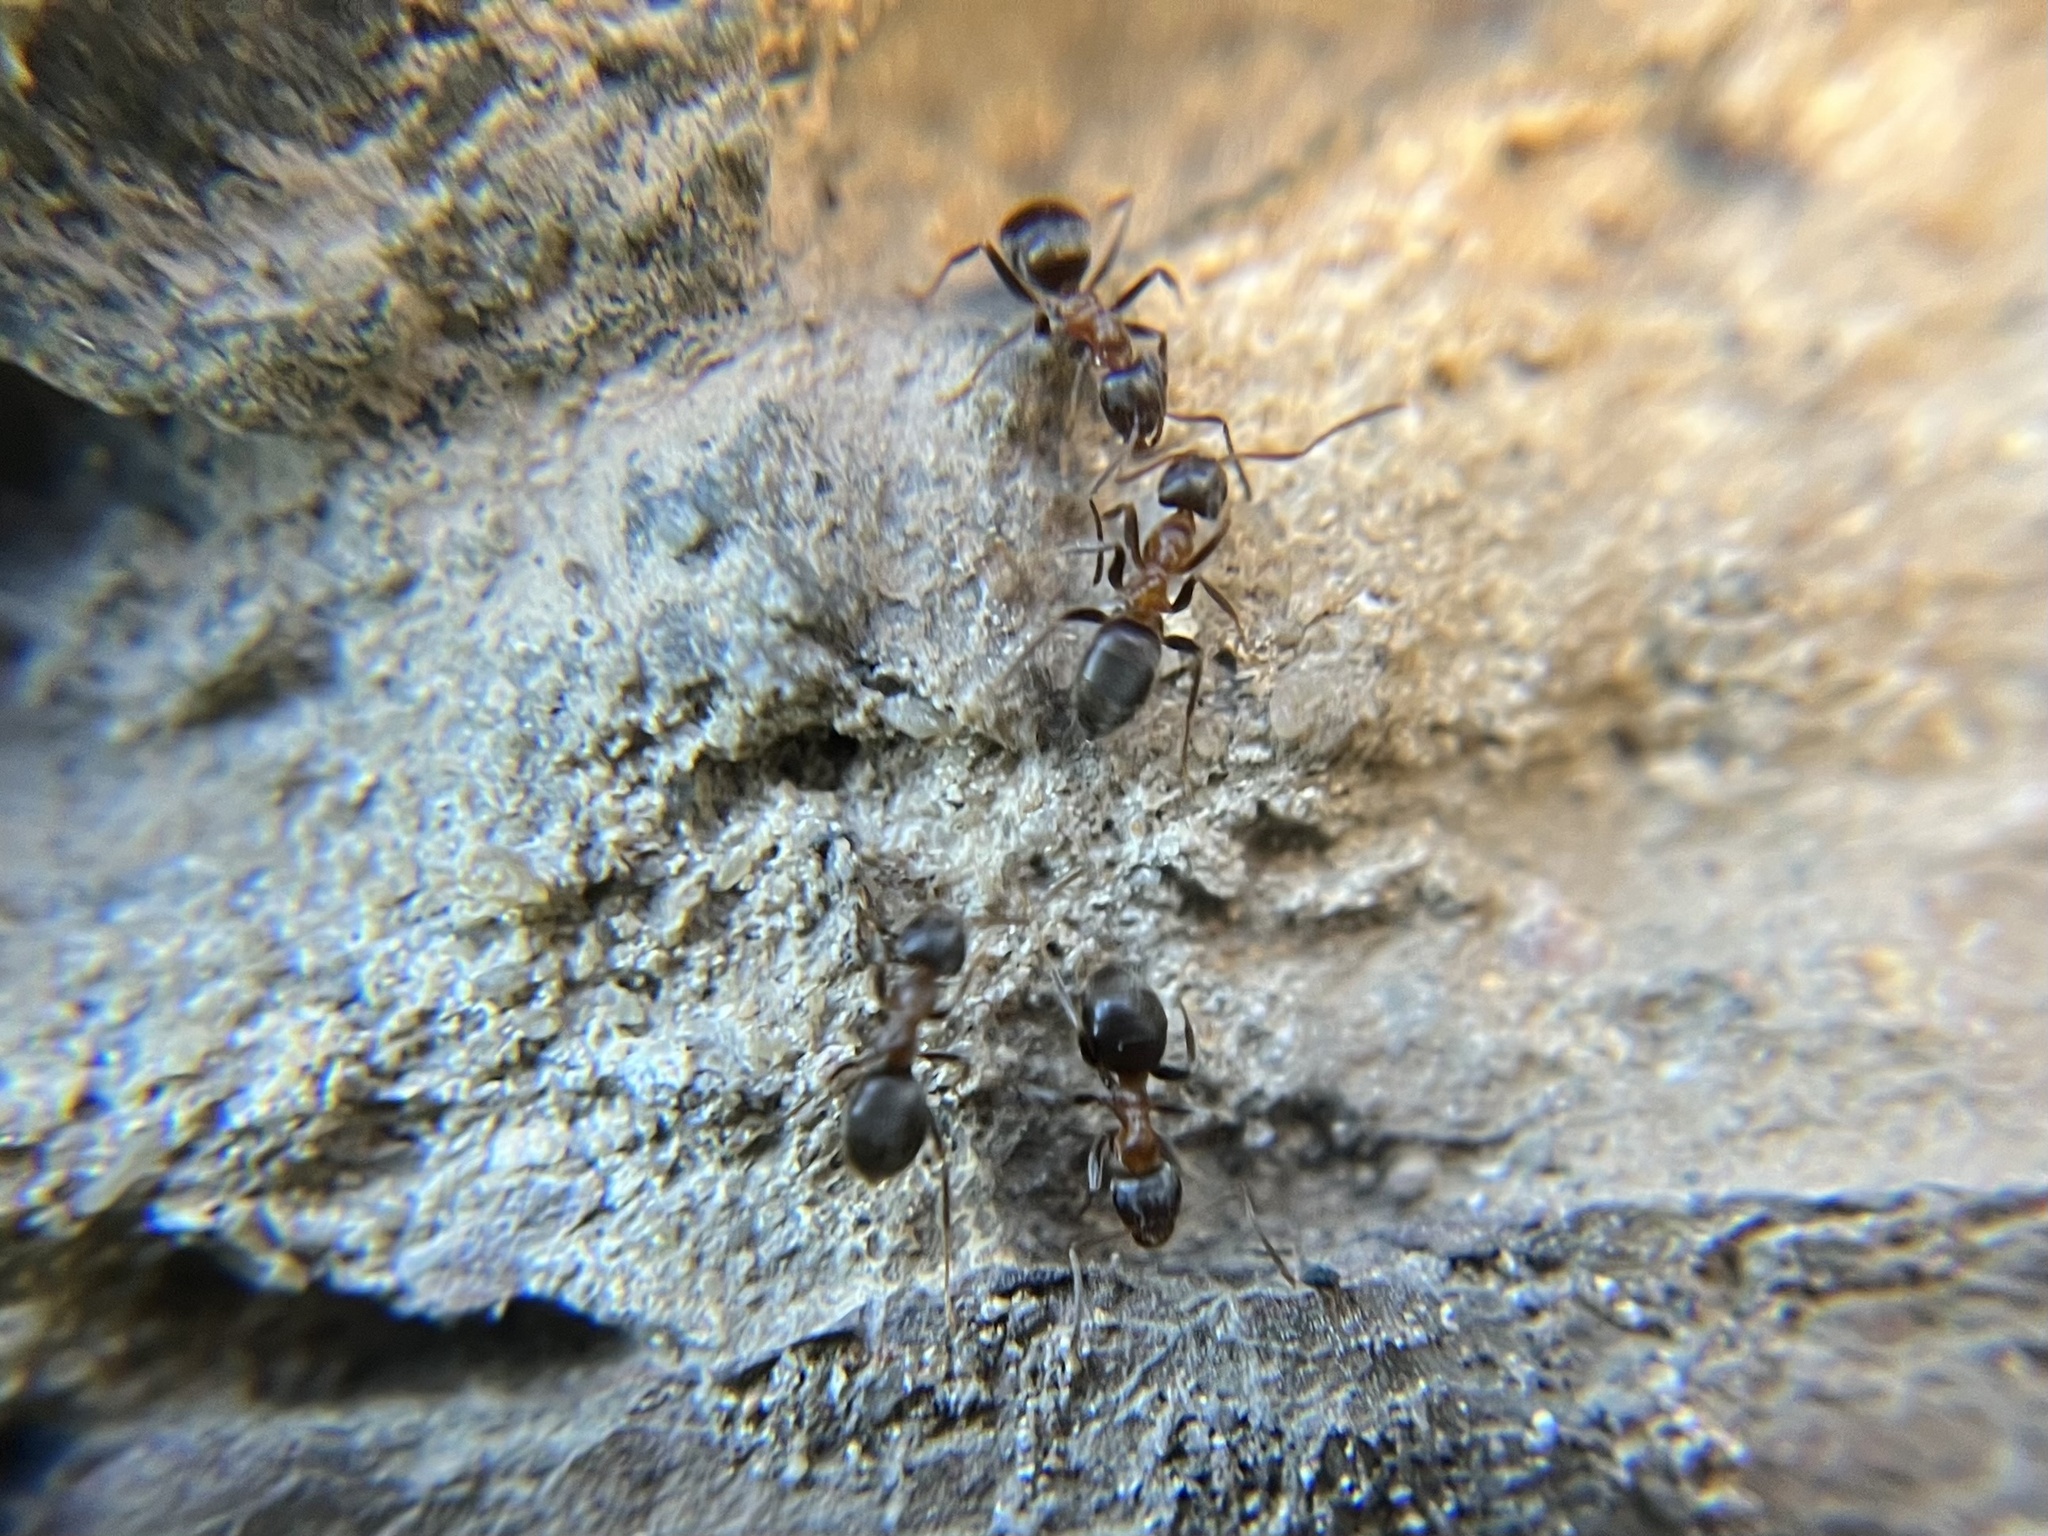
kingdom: Animalia
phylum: Arthropoda
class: Insecta
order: Hymenoptera
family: Formicidae
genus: Lasius
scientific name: Lasius emarginatus
